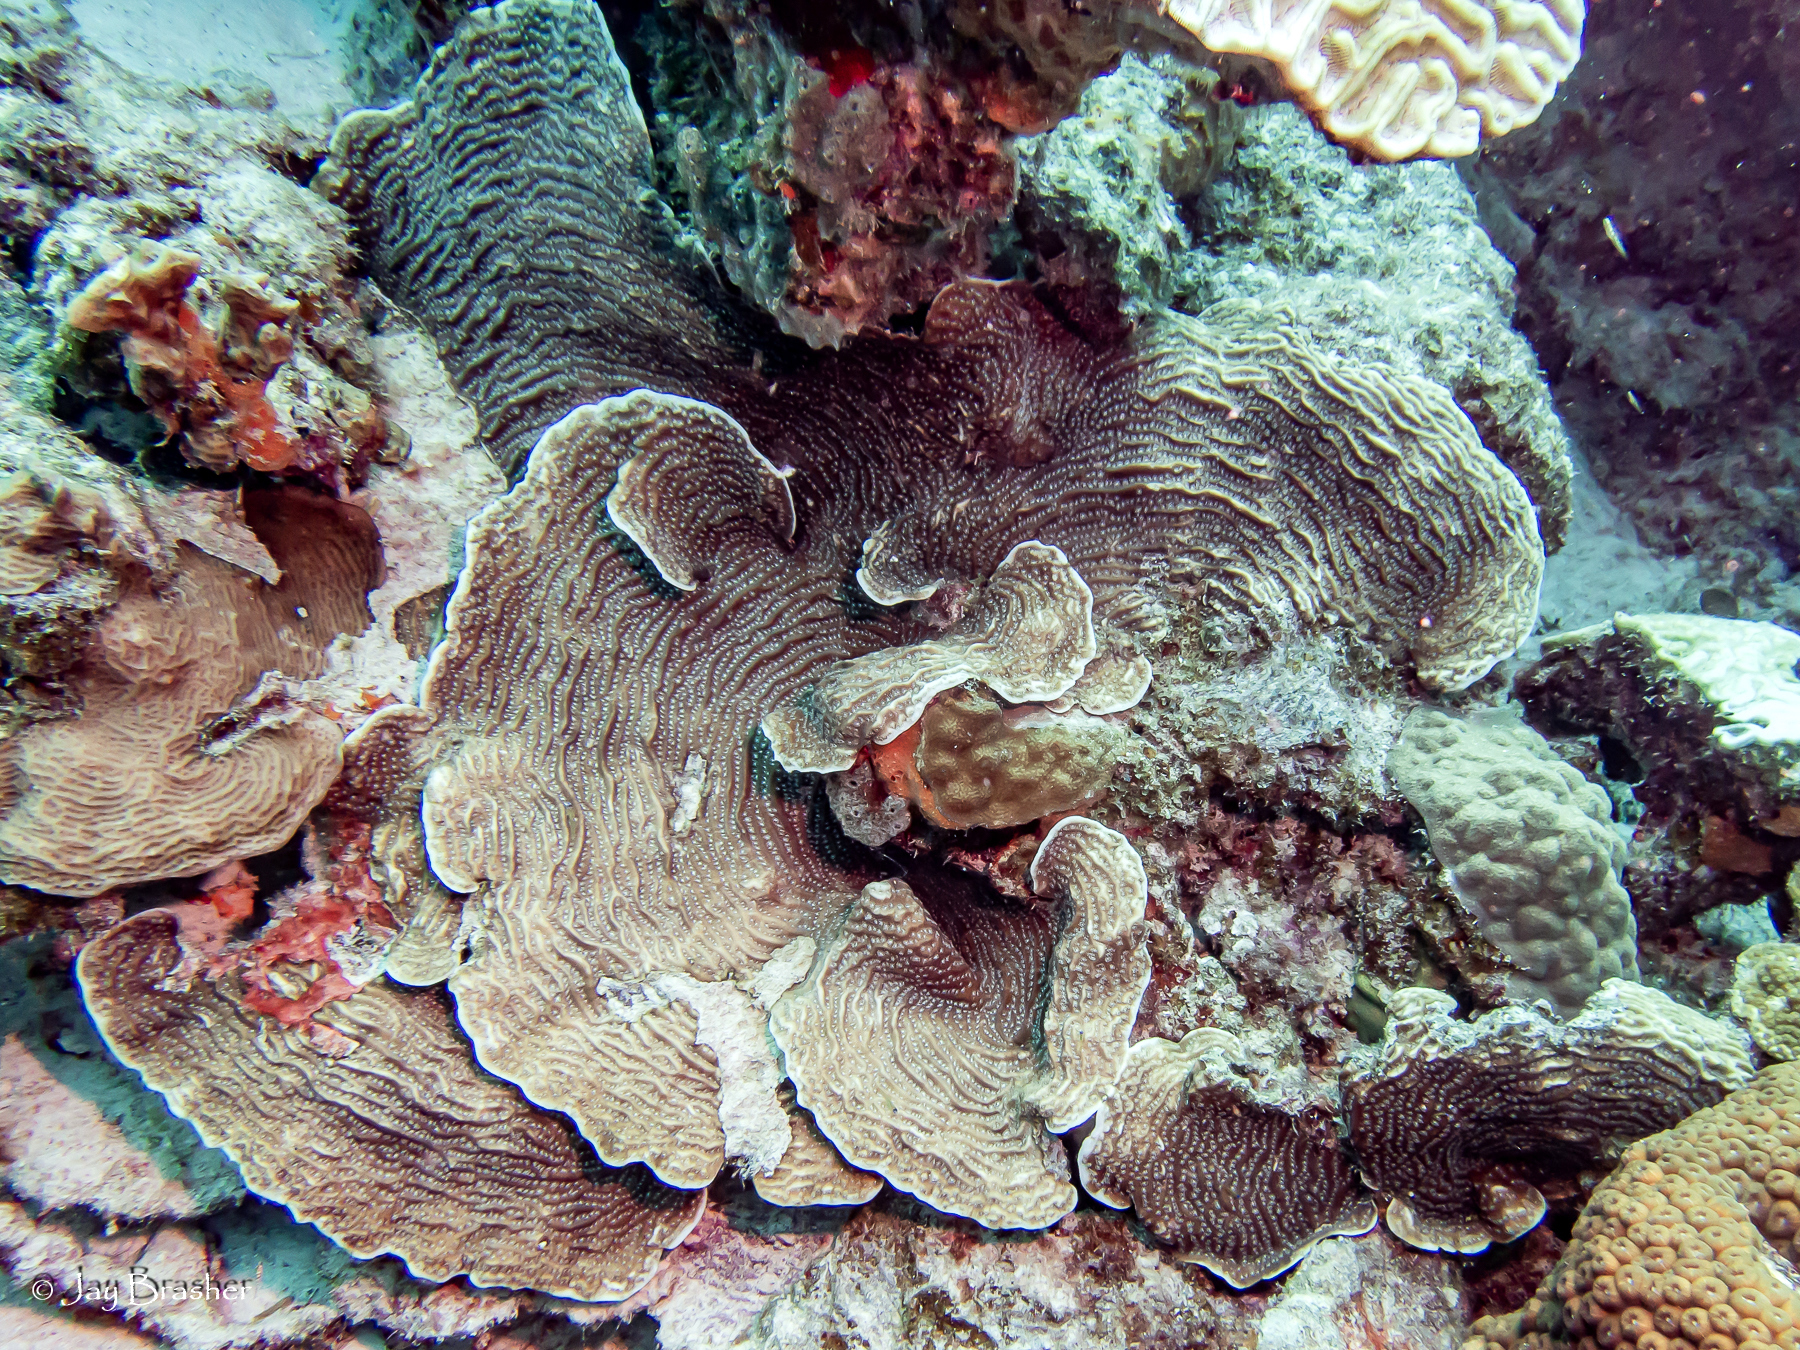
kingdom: Animalia
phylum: Cnidaria
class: Anthozoa
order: Scleractinia
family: Agariciidae
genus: Agaricia
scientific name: Agaricia lamarcki
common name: Lamarck's sheet coral
